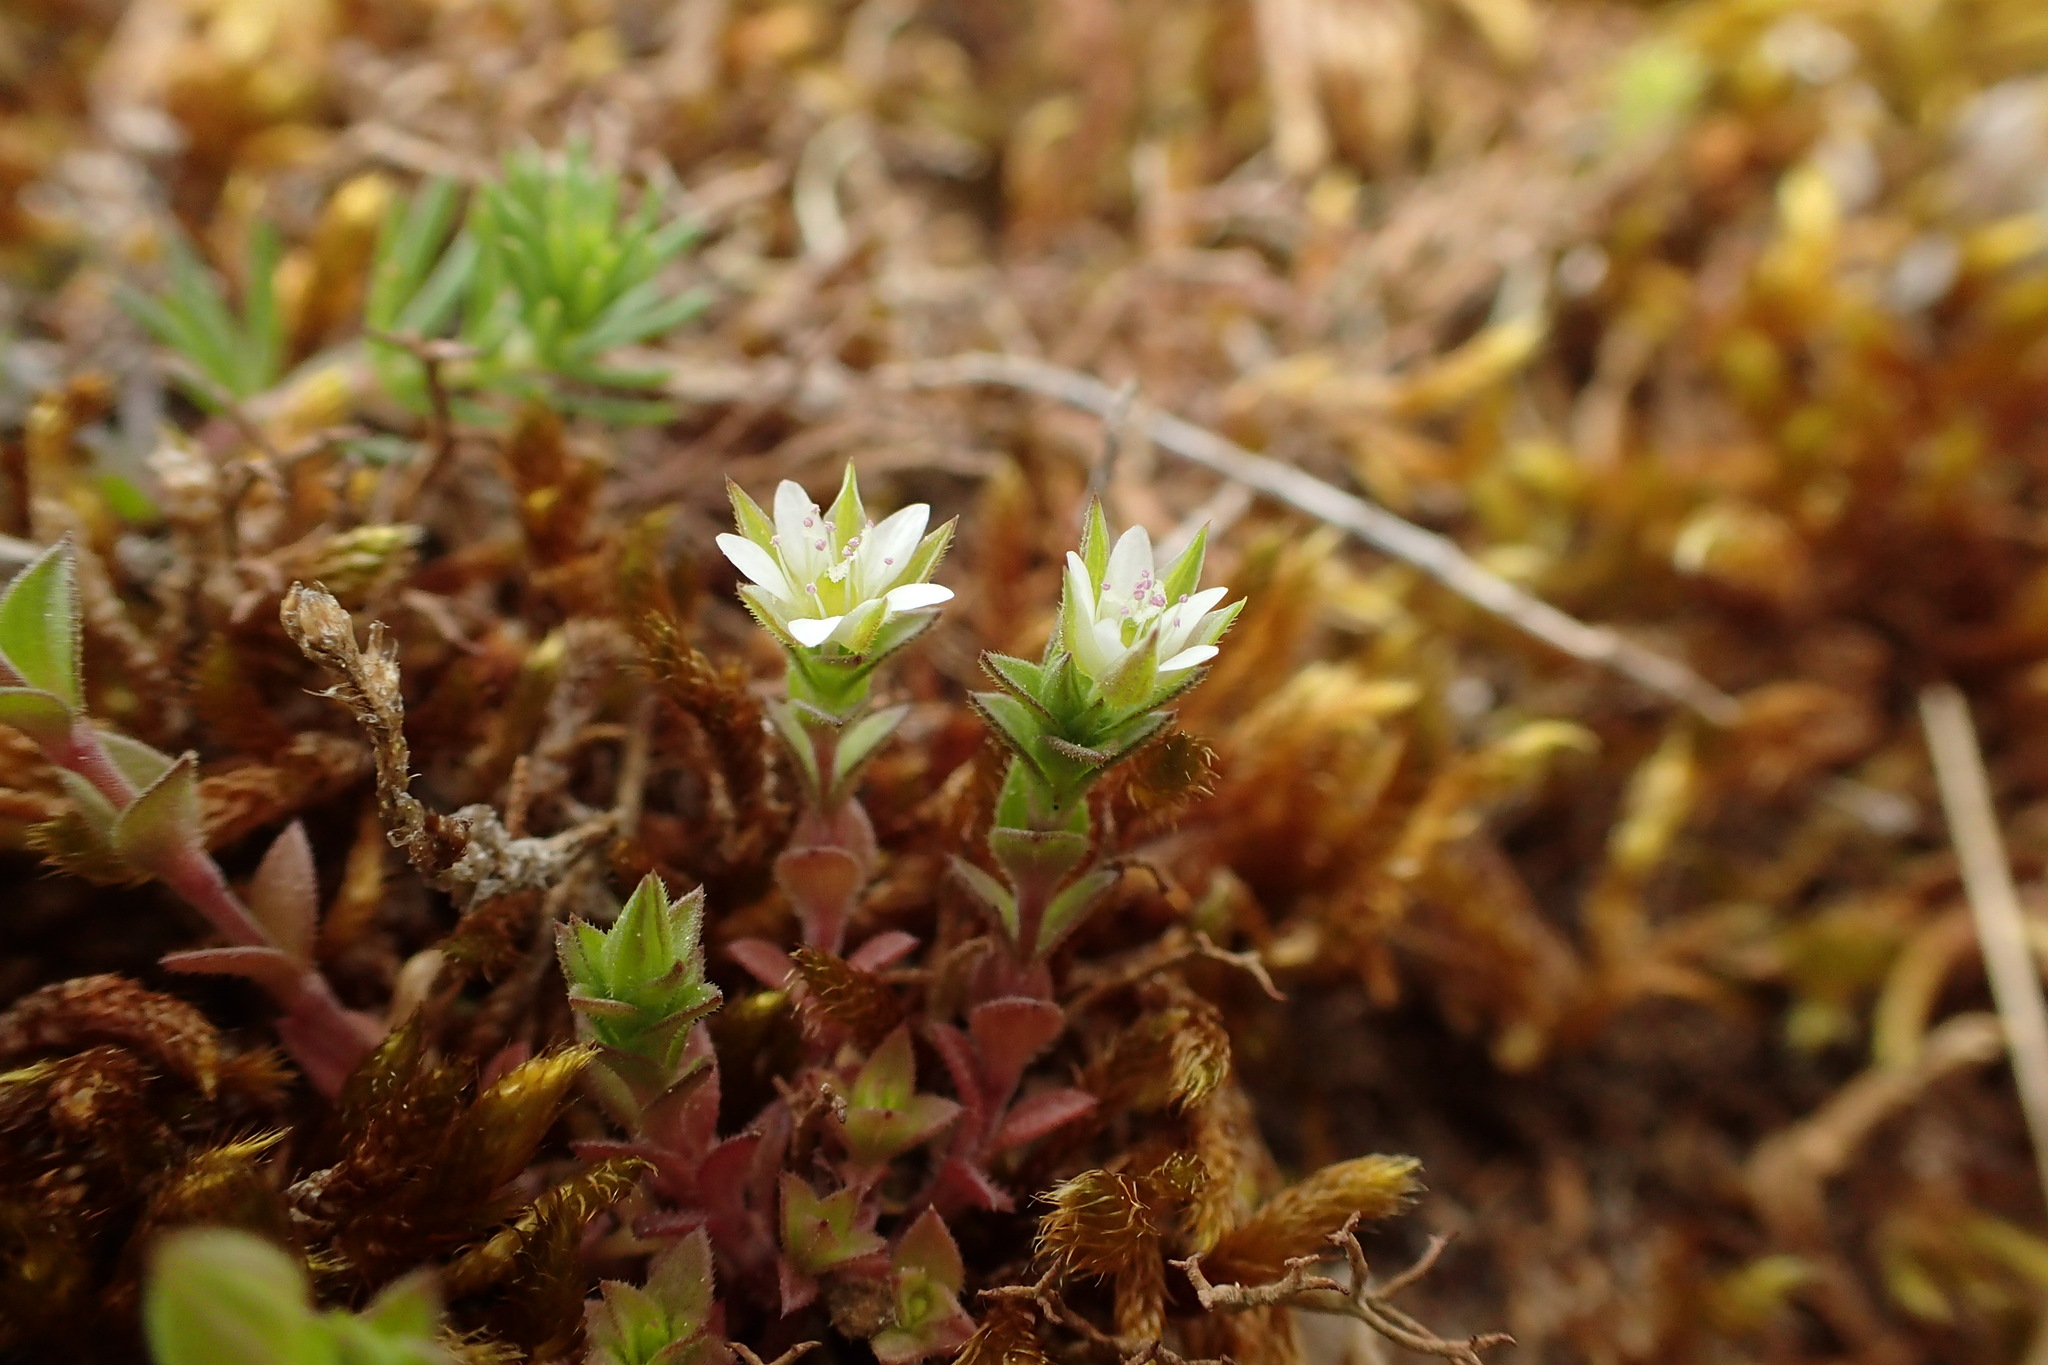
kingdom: Plantae
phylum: Tracheophyta
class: Magnoliopsida
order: Caryophyllales
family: Caryophyllaceae
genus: Arenaria
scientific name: Arenaria serpyllifolia
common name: Thyme-leaved sandwort
